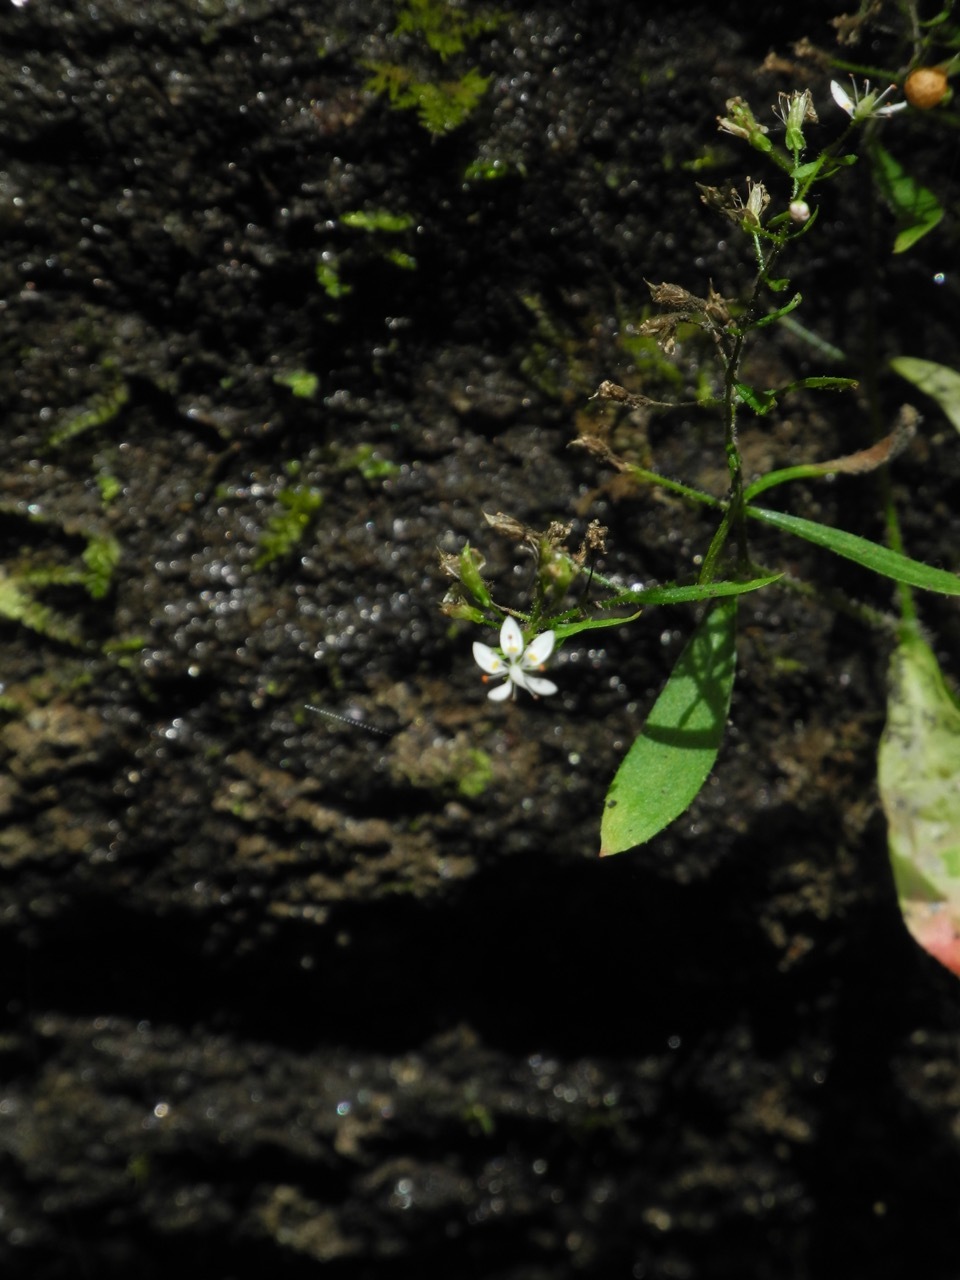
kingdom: Plantae
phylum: Tracheophyta
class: Magnoliopsida
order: Saxifragales
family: Saxifragaceae
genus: Micranthes
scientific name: Micranthes petiolaris
